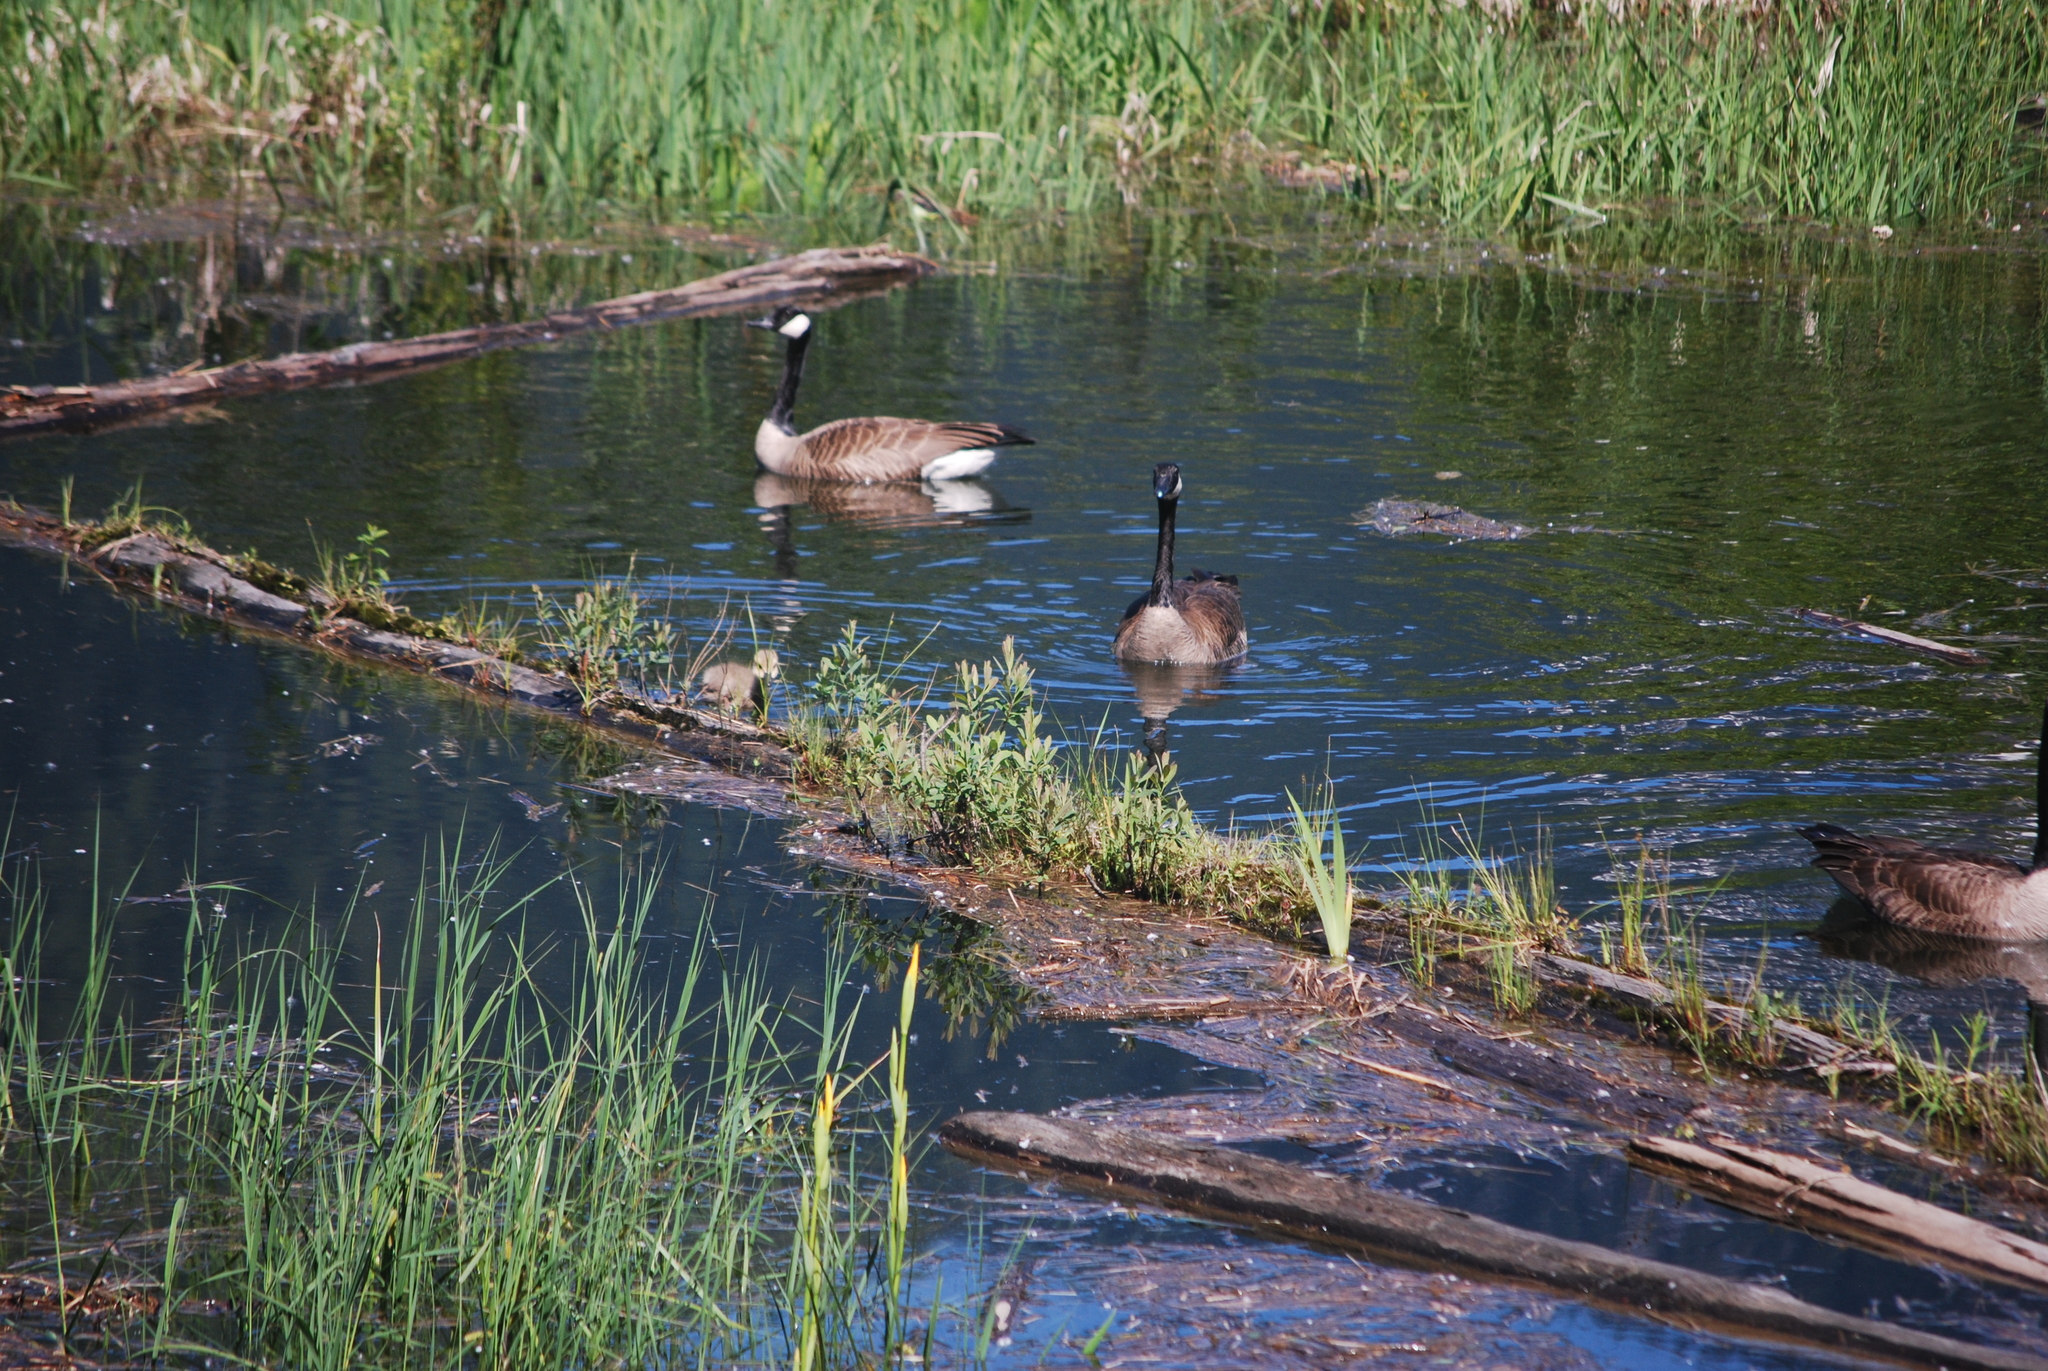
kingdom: Animalia
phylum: Chordata
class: Aves
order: Anseriformes
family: Anatidae
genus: Branta
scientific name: Branta canadensis
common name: Canada goose
